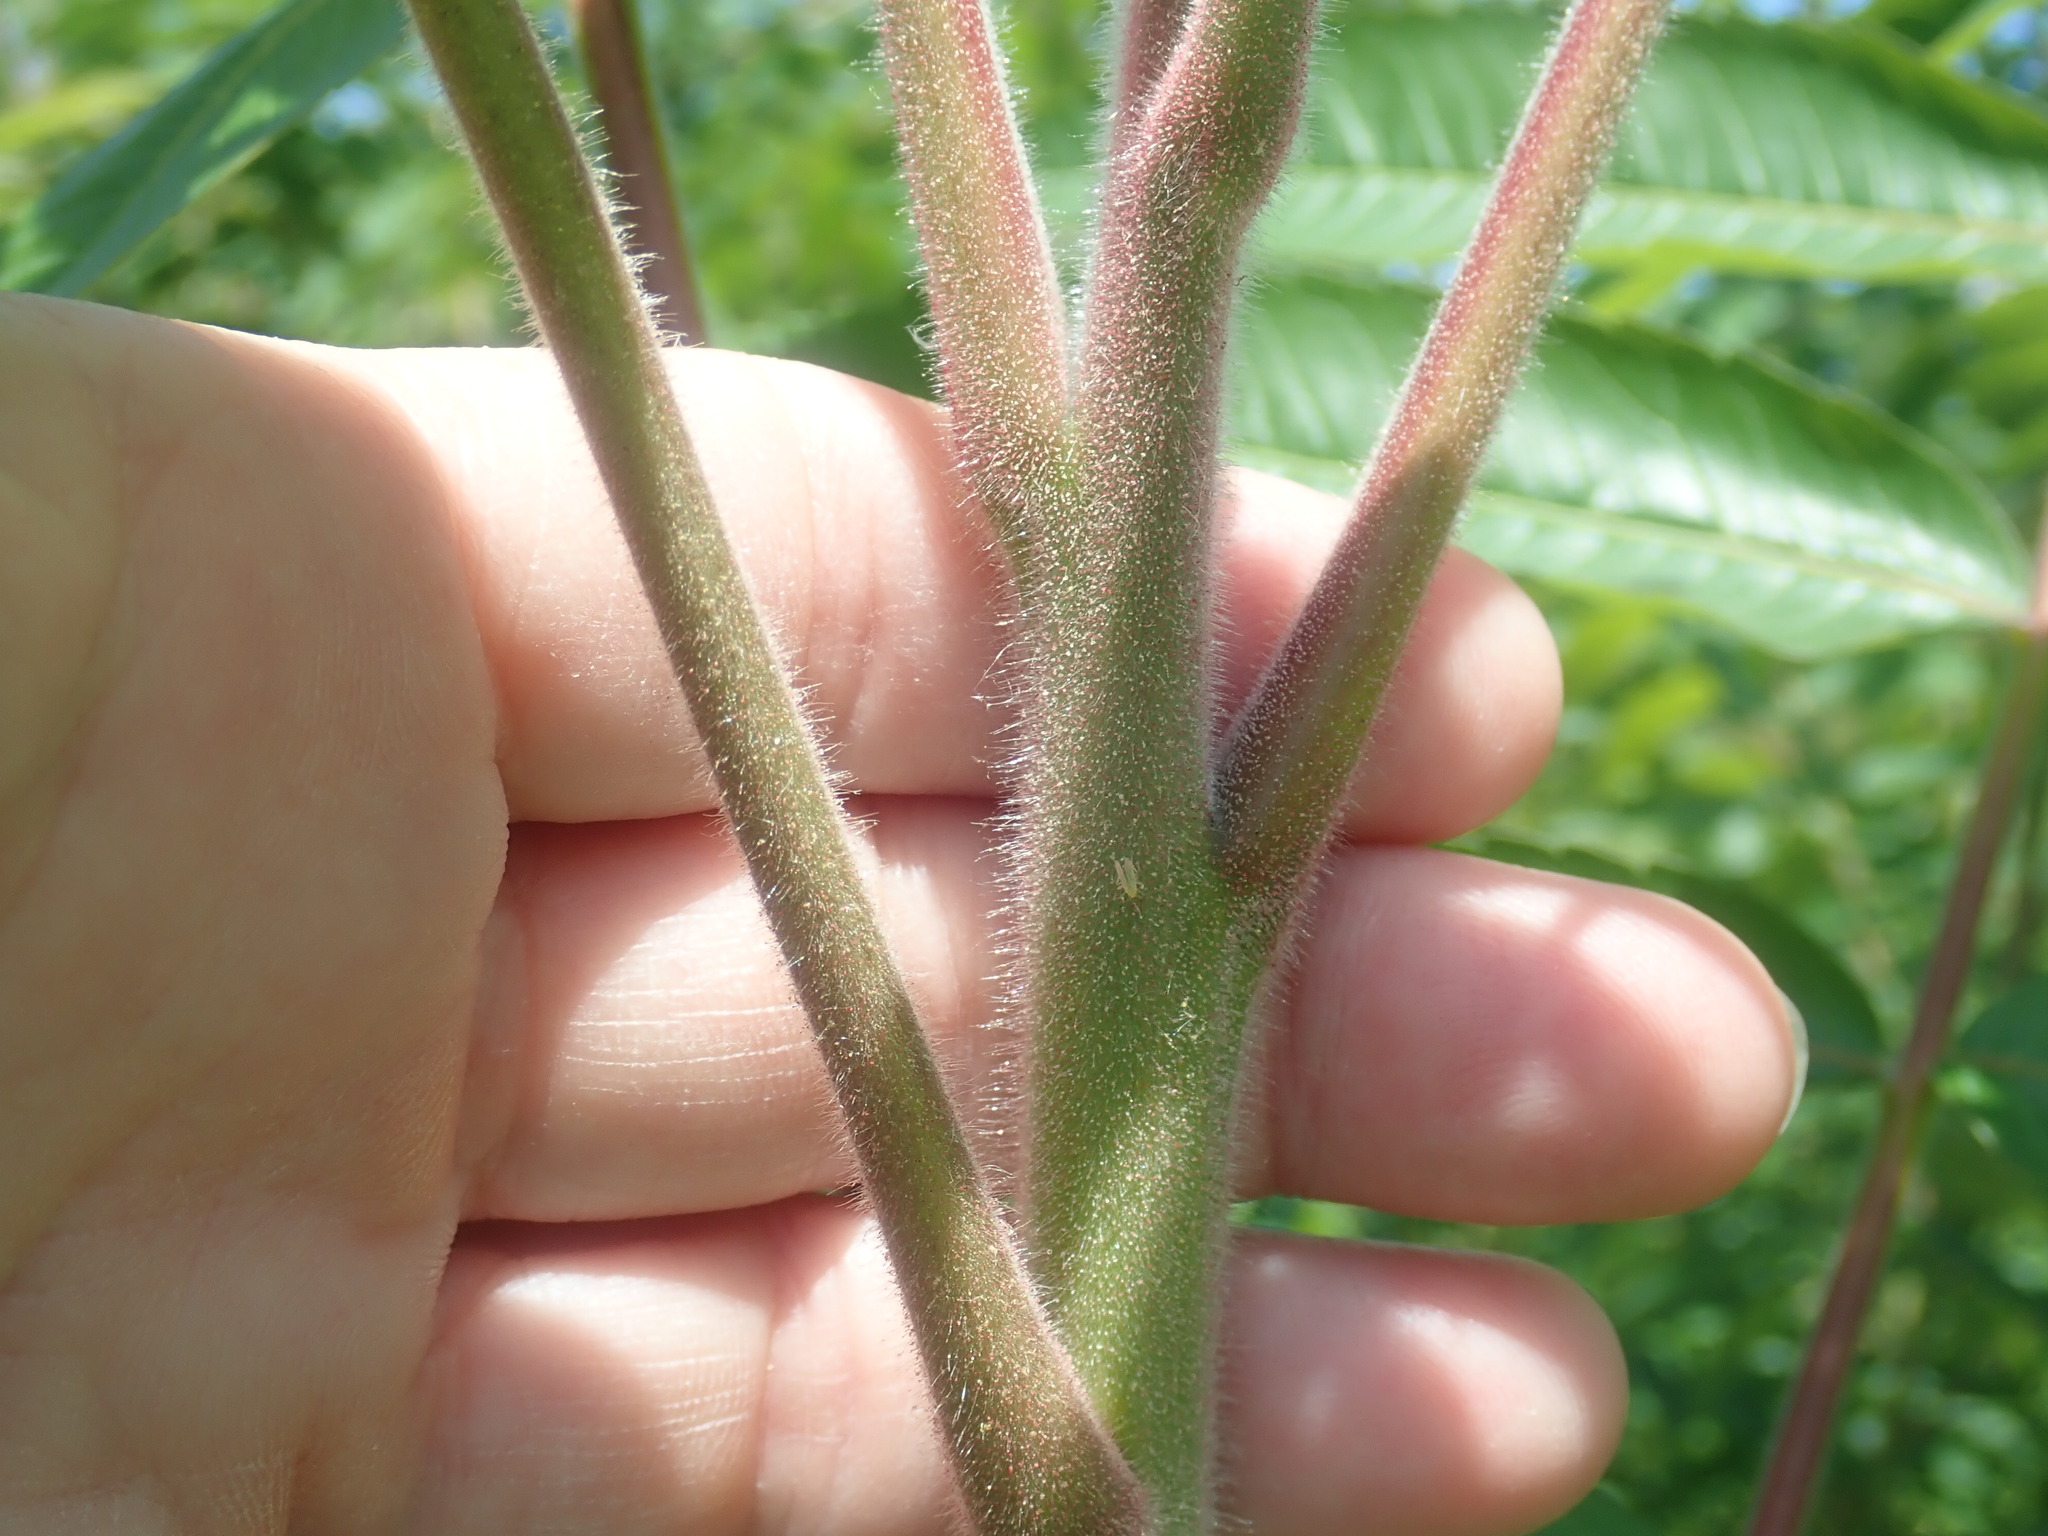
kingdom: Plantae
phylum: Tracheophyta
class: Magnoliopsida
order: Sapindales
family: Anacardiaceae
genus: Rhus
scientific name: Rhus typhina
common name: Staghorn sumac
